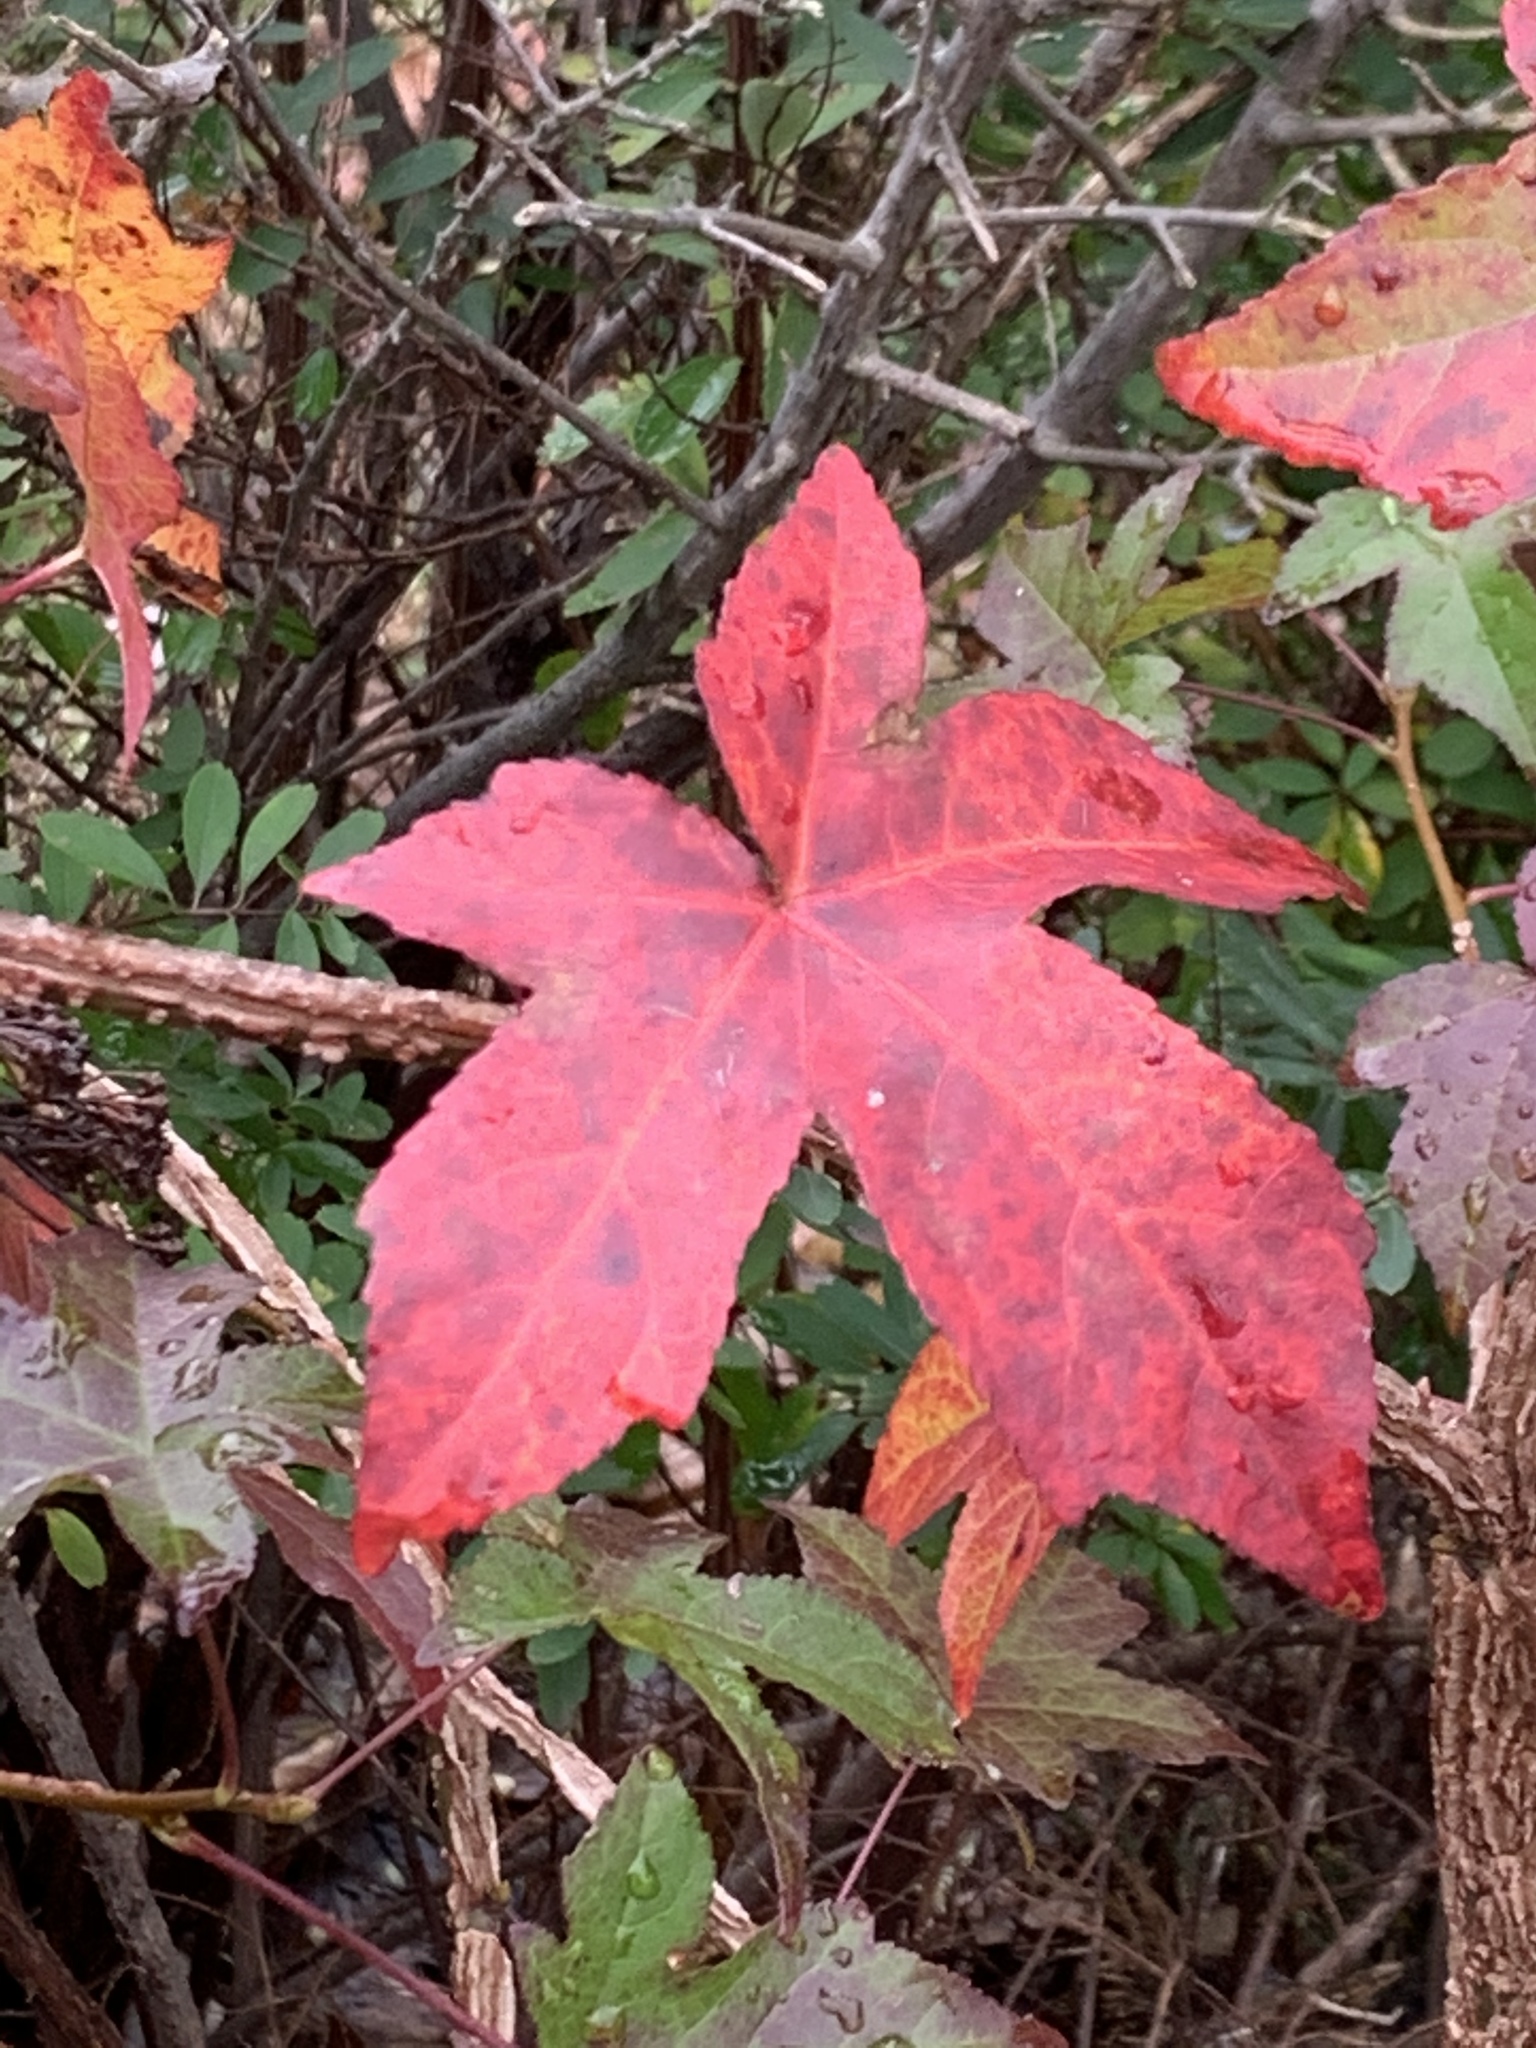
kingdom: Plantae
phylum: Tracheophyta
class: Magnoliopsida
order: Saxifragales
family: Altingiaceae
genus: Liquidambar
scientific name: Liquidambar styraciflua
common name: Sweet gum
